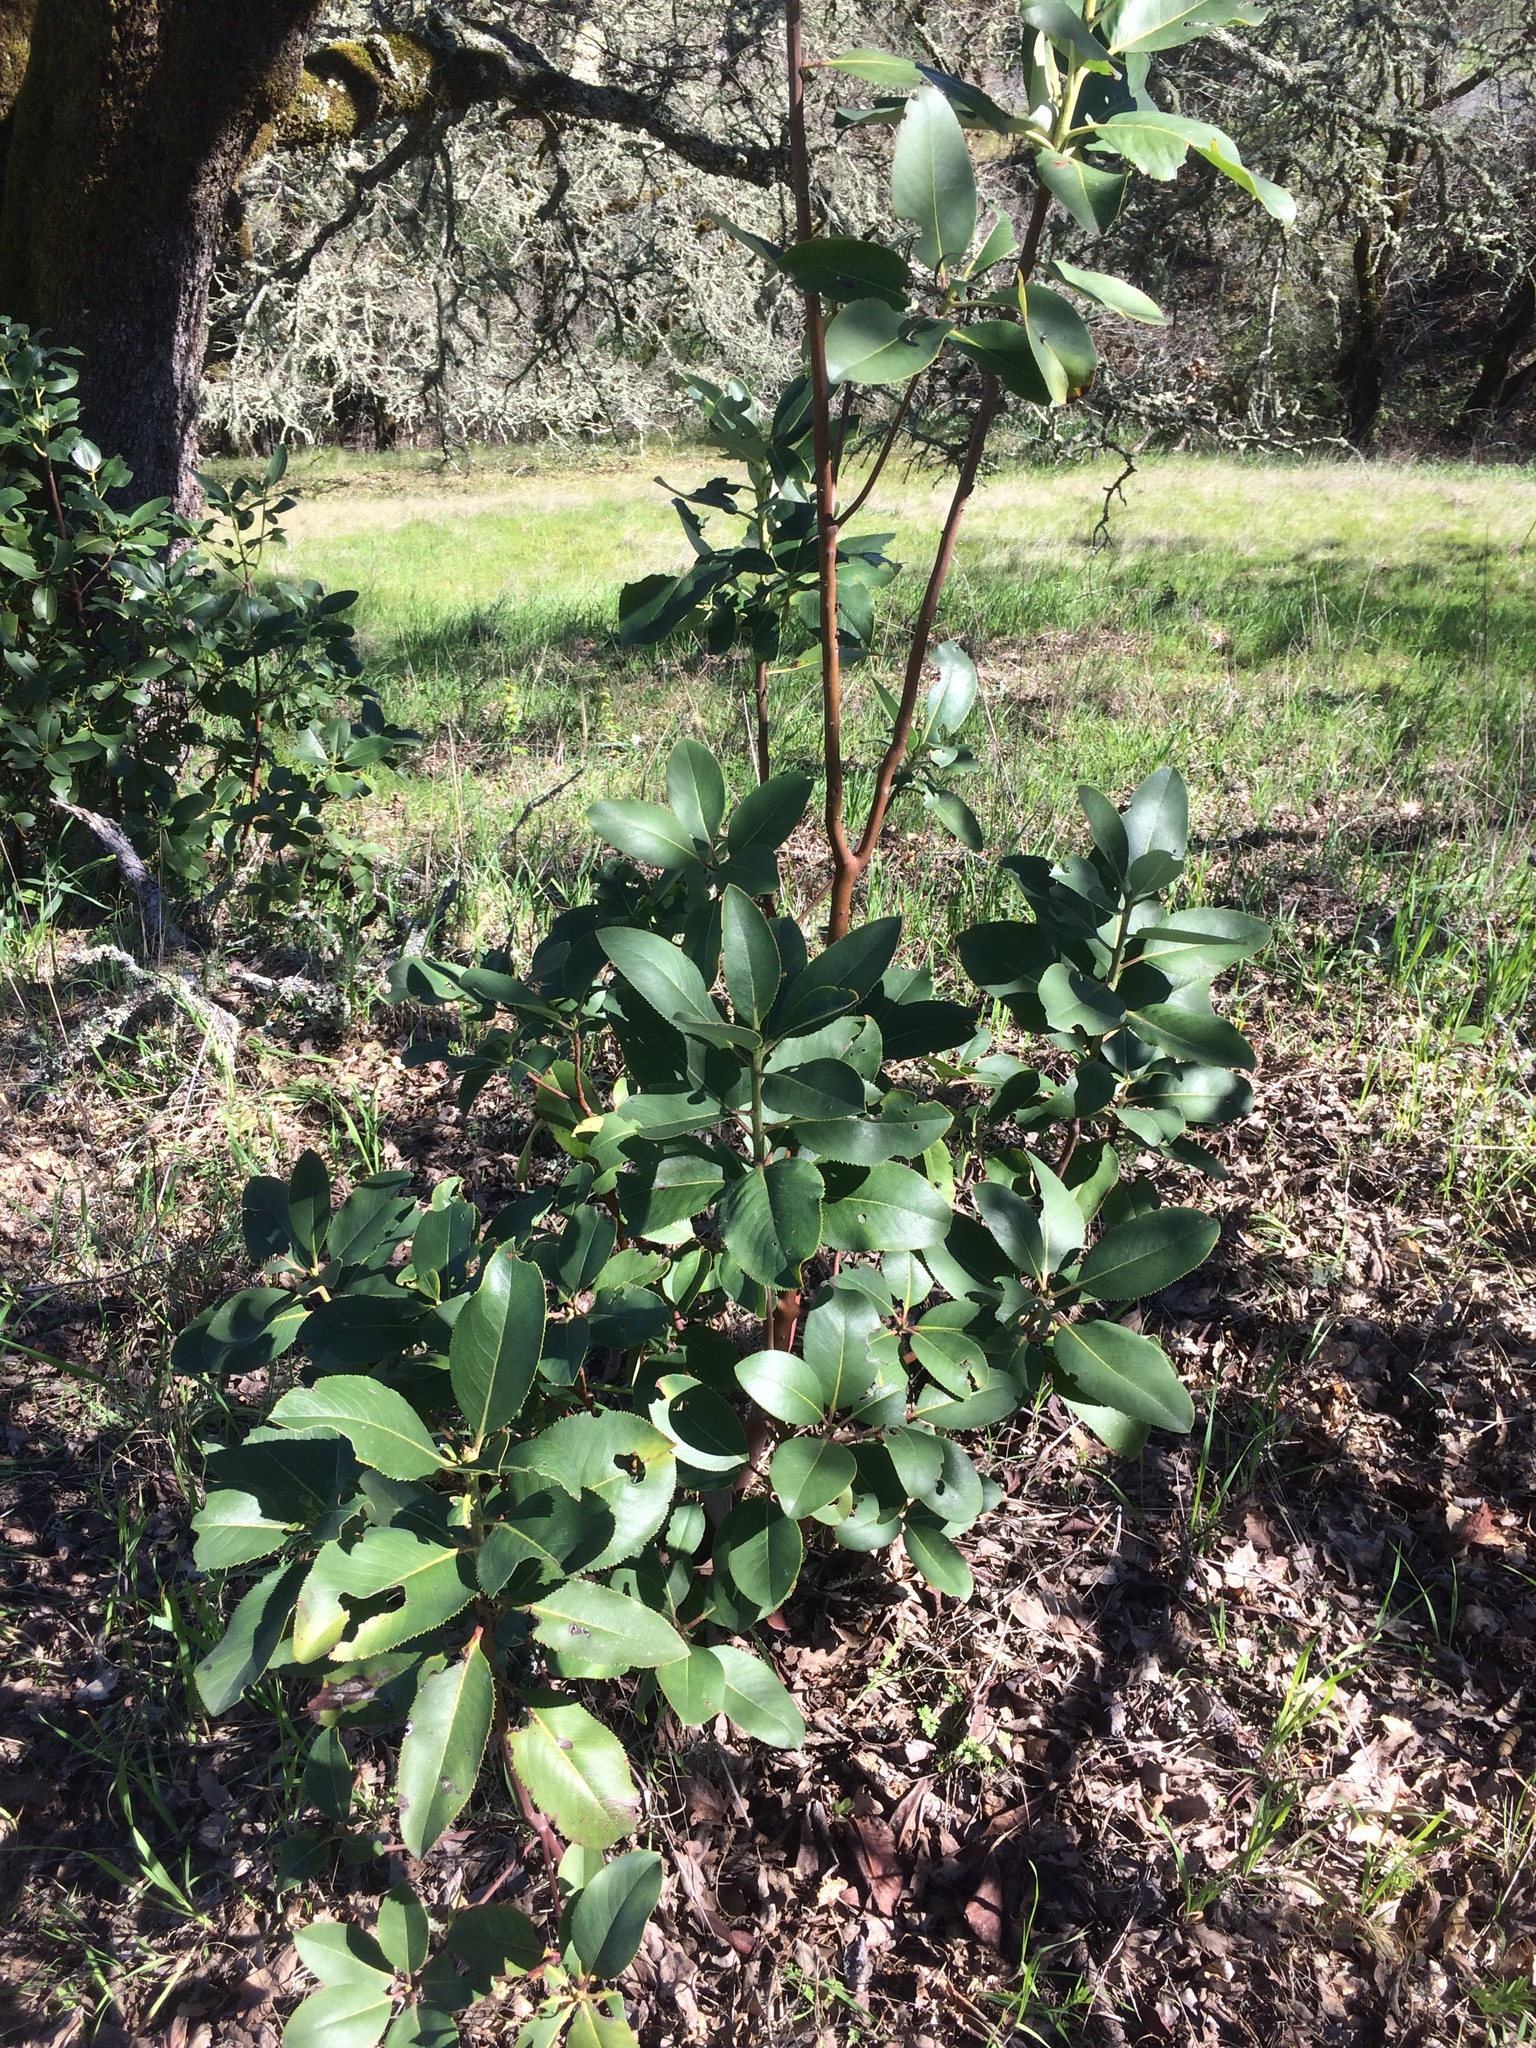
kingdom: Plantae
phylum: Tracheophyta
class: Magnoliopsida
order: Ericales
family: Ericaceae
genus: Arbutus
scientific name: Arbutus menziesii
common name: Pacific madrone
